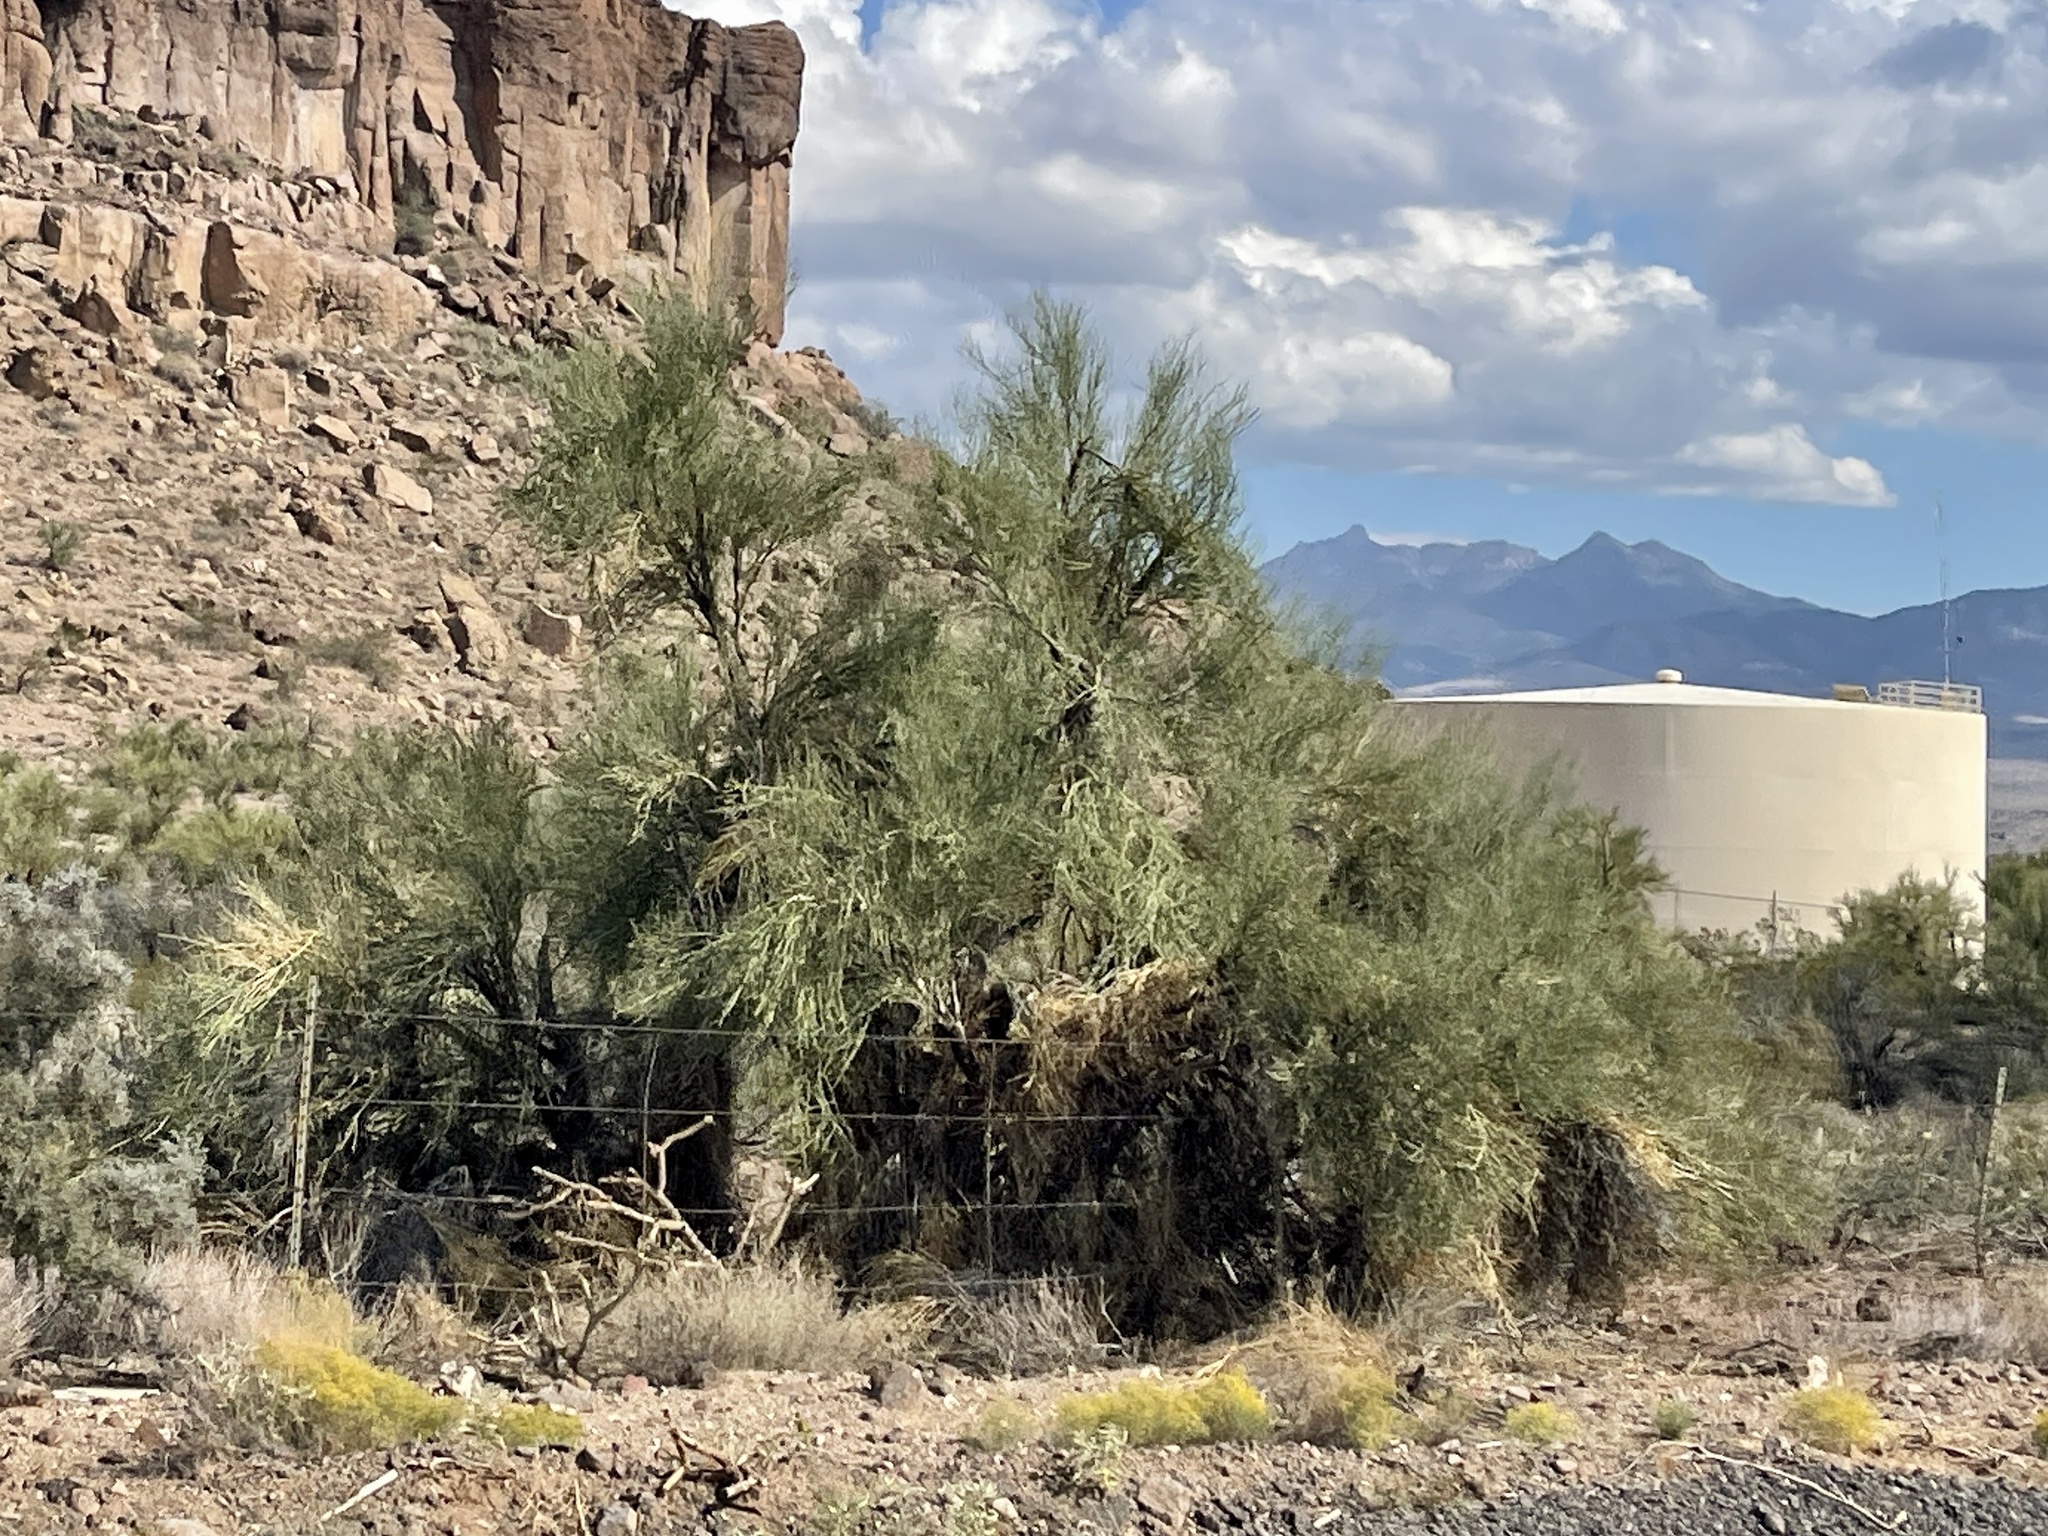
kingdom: Plantae
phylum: Tracheophyta
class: Magnoliopsida
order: Celastrales
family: Celastraceae
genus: Canotia
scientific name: Canotia holacantha
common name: Crucifixion thorns
